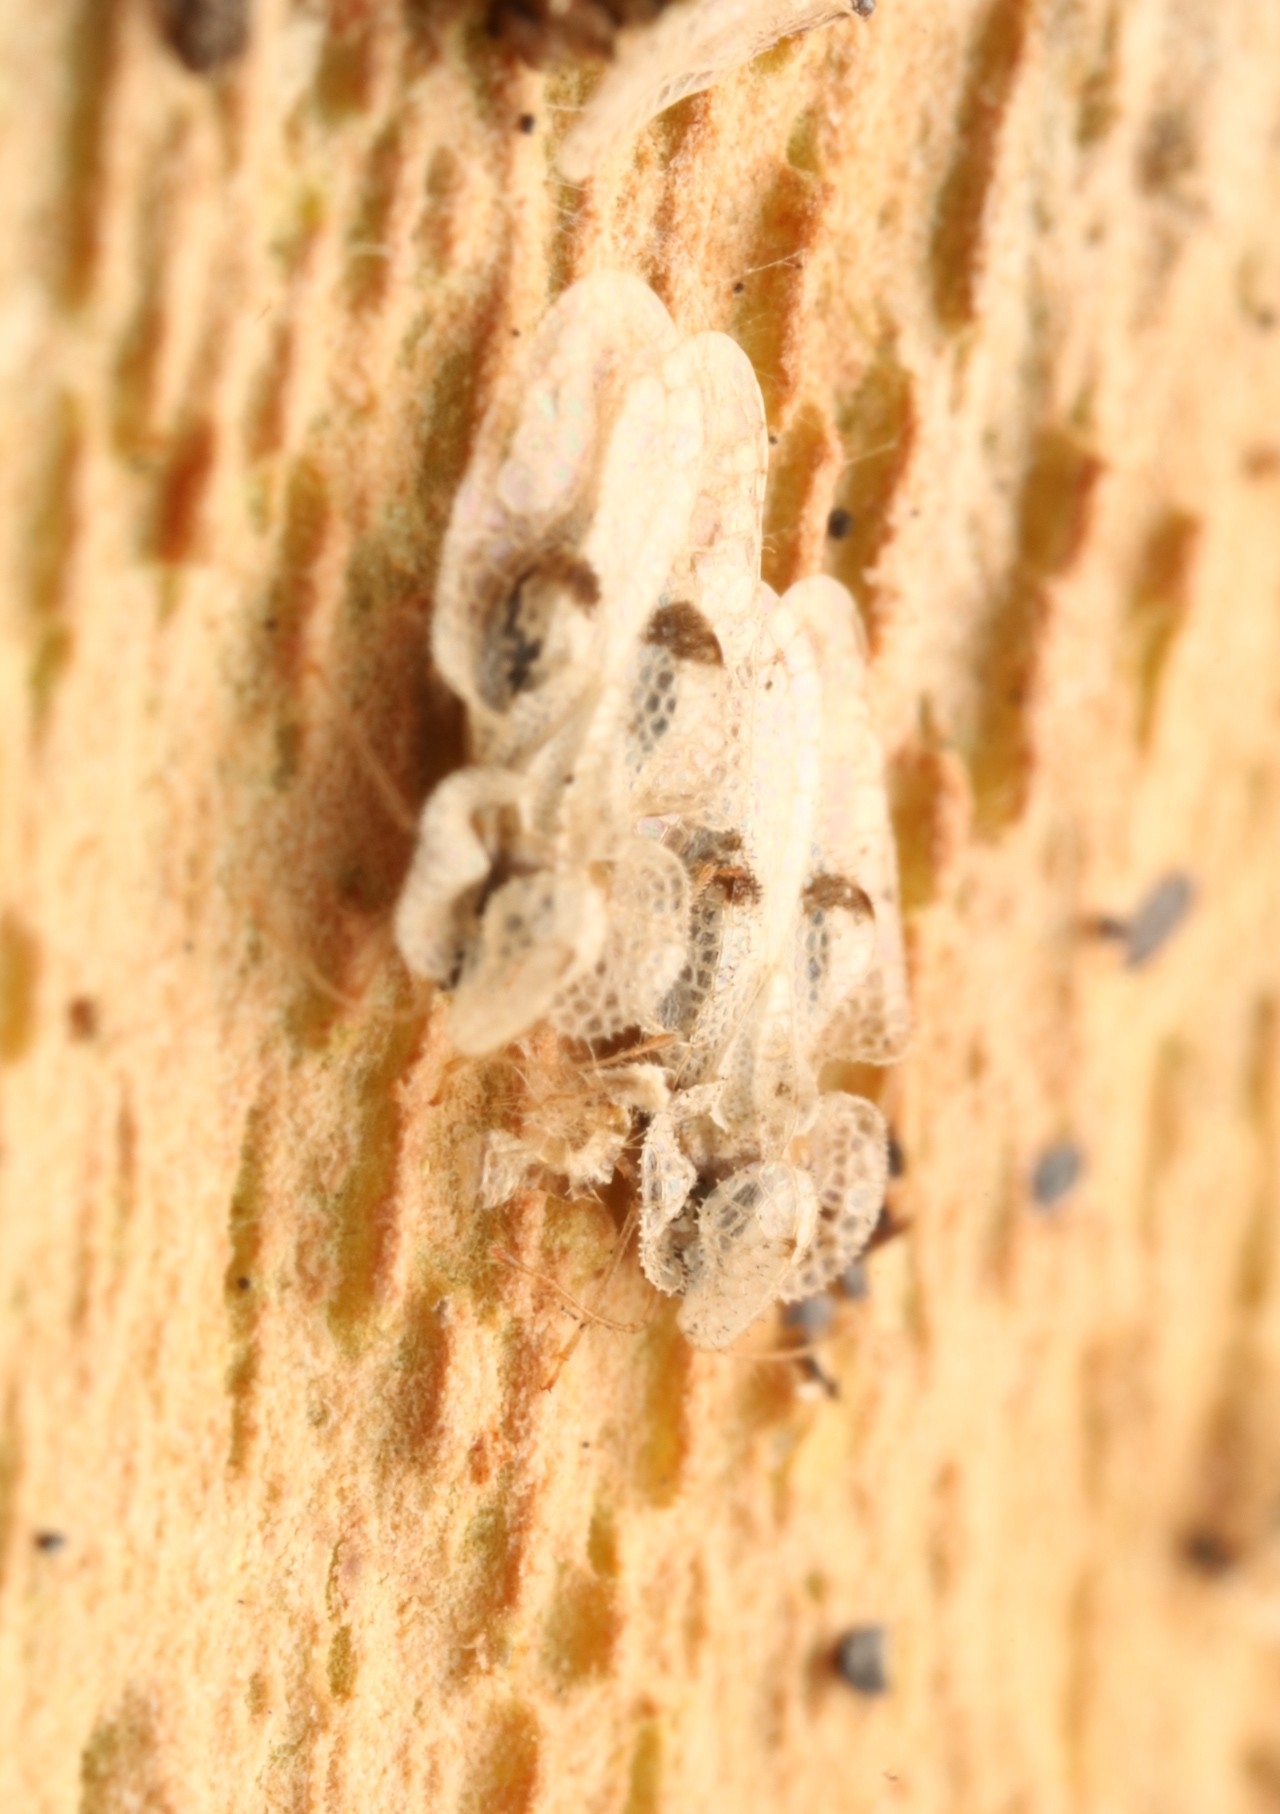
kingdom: Animalia
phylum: Arthropoda
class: Insecta
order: Hemiptera
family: Tingidae
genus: Corythucha
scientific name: Corythucha ciliata
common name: Sycamore lace bug
